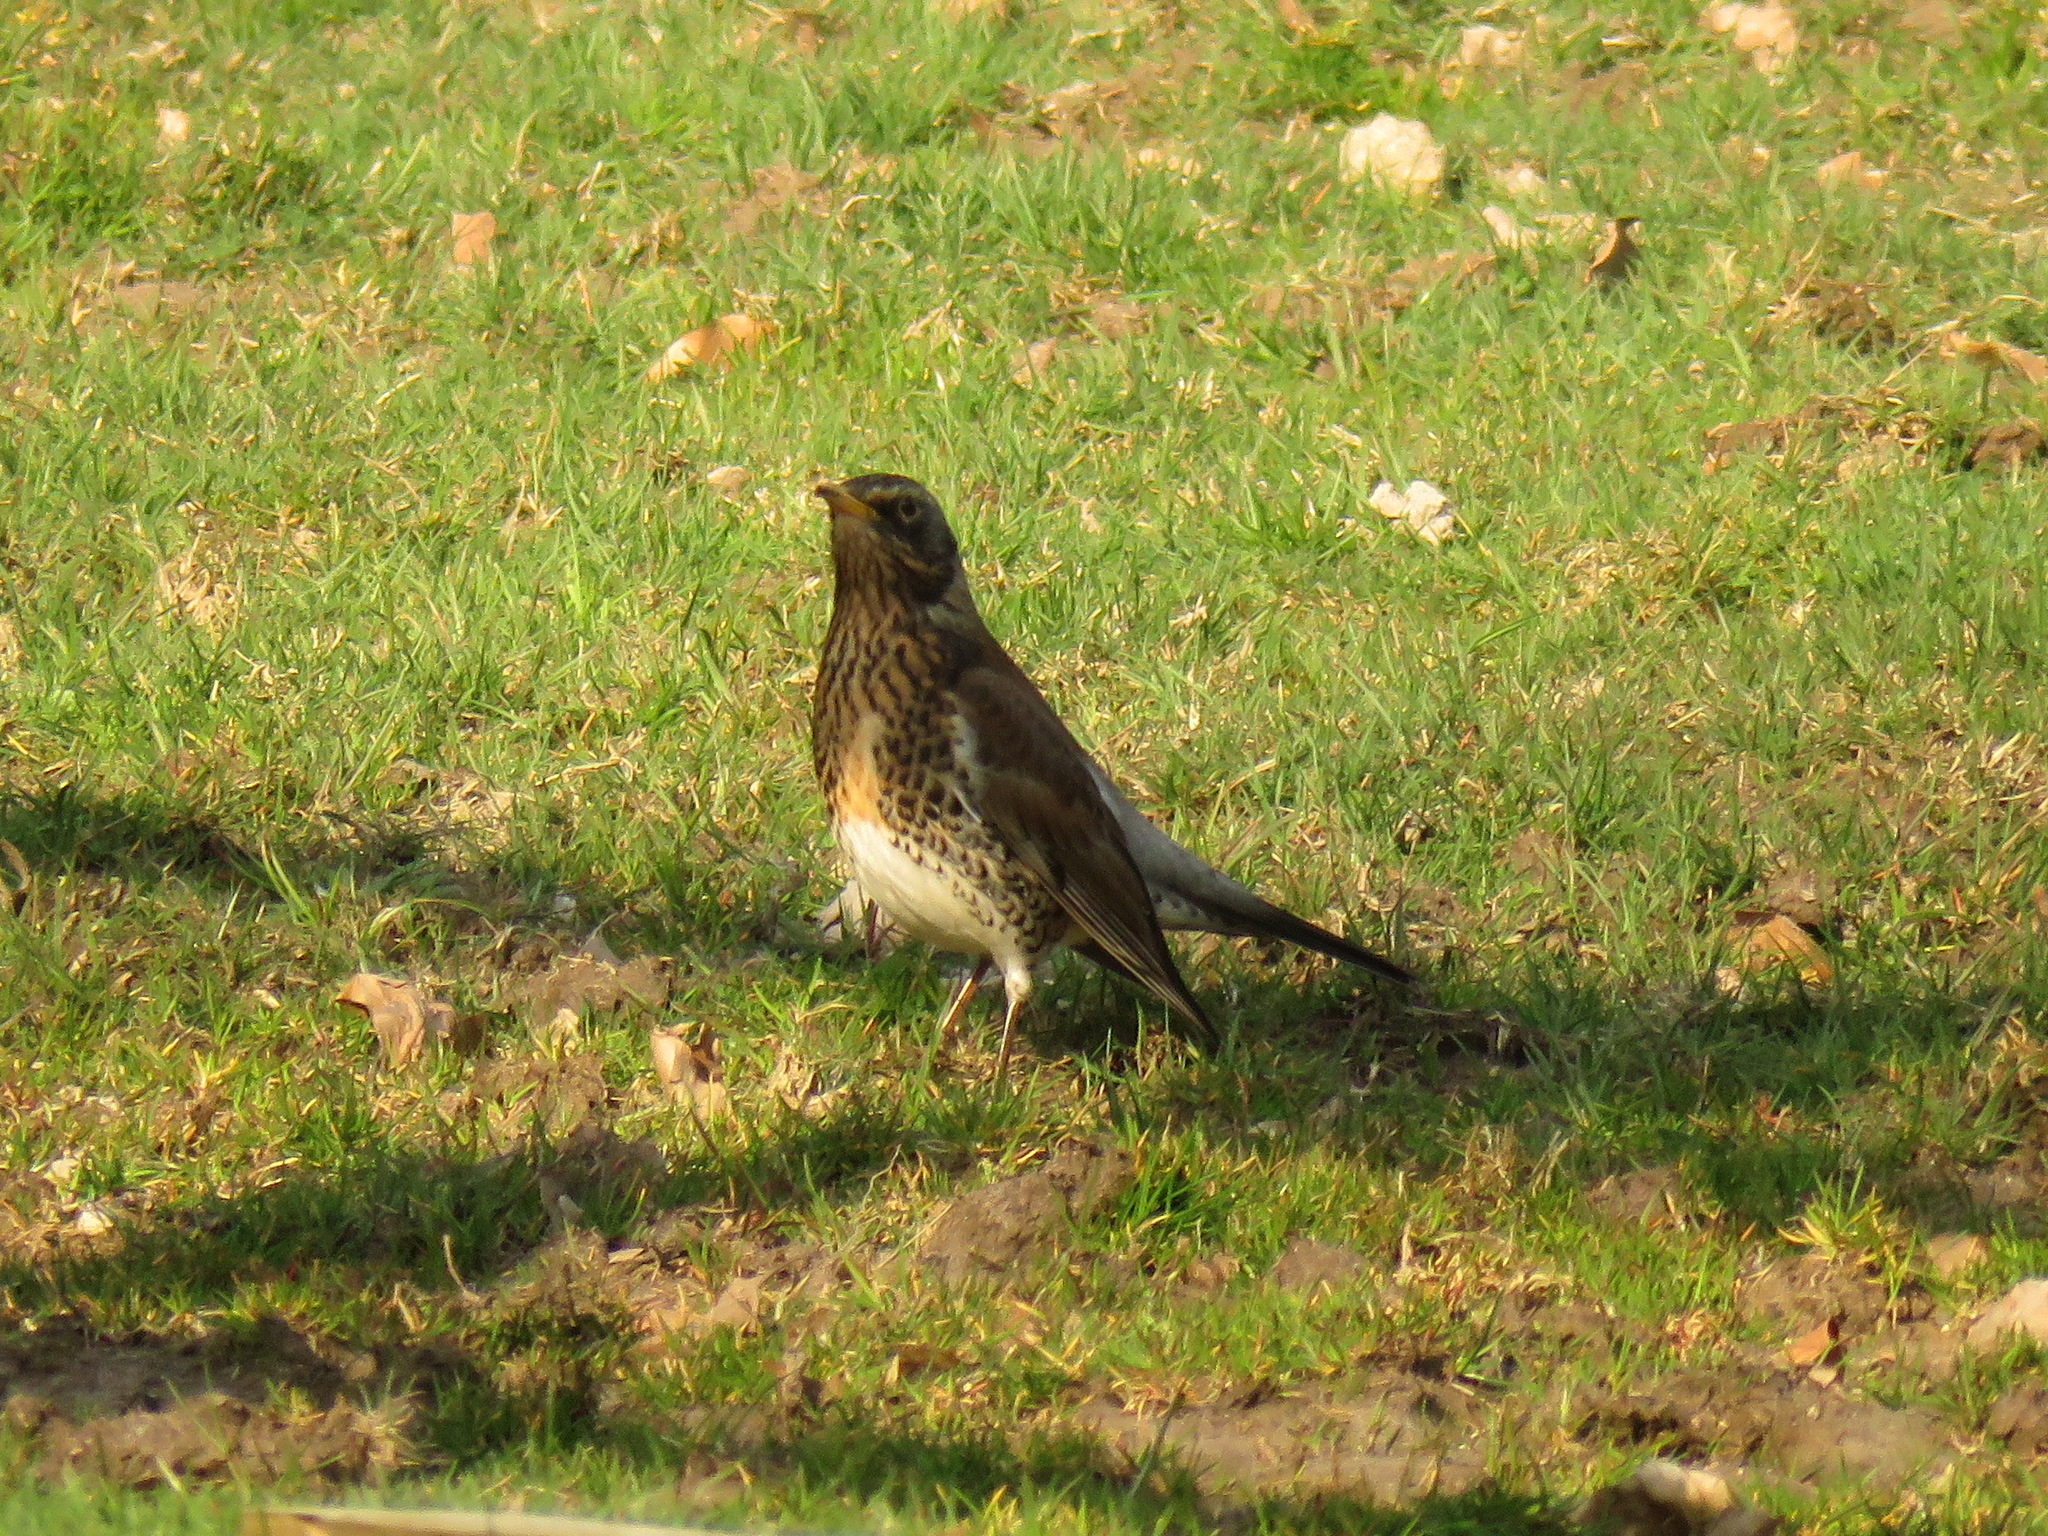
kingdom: Animalia
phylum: Chordata
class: Aves
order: Passeriformes
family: Turdidae
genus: Turdus
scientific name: Turdus pilaris
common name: Fieldfare
